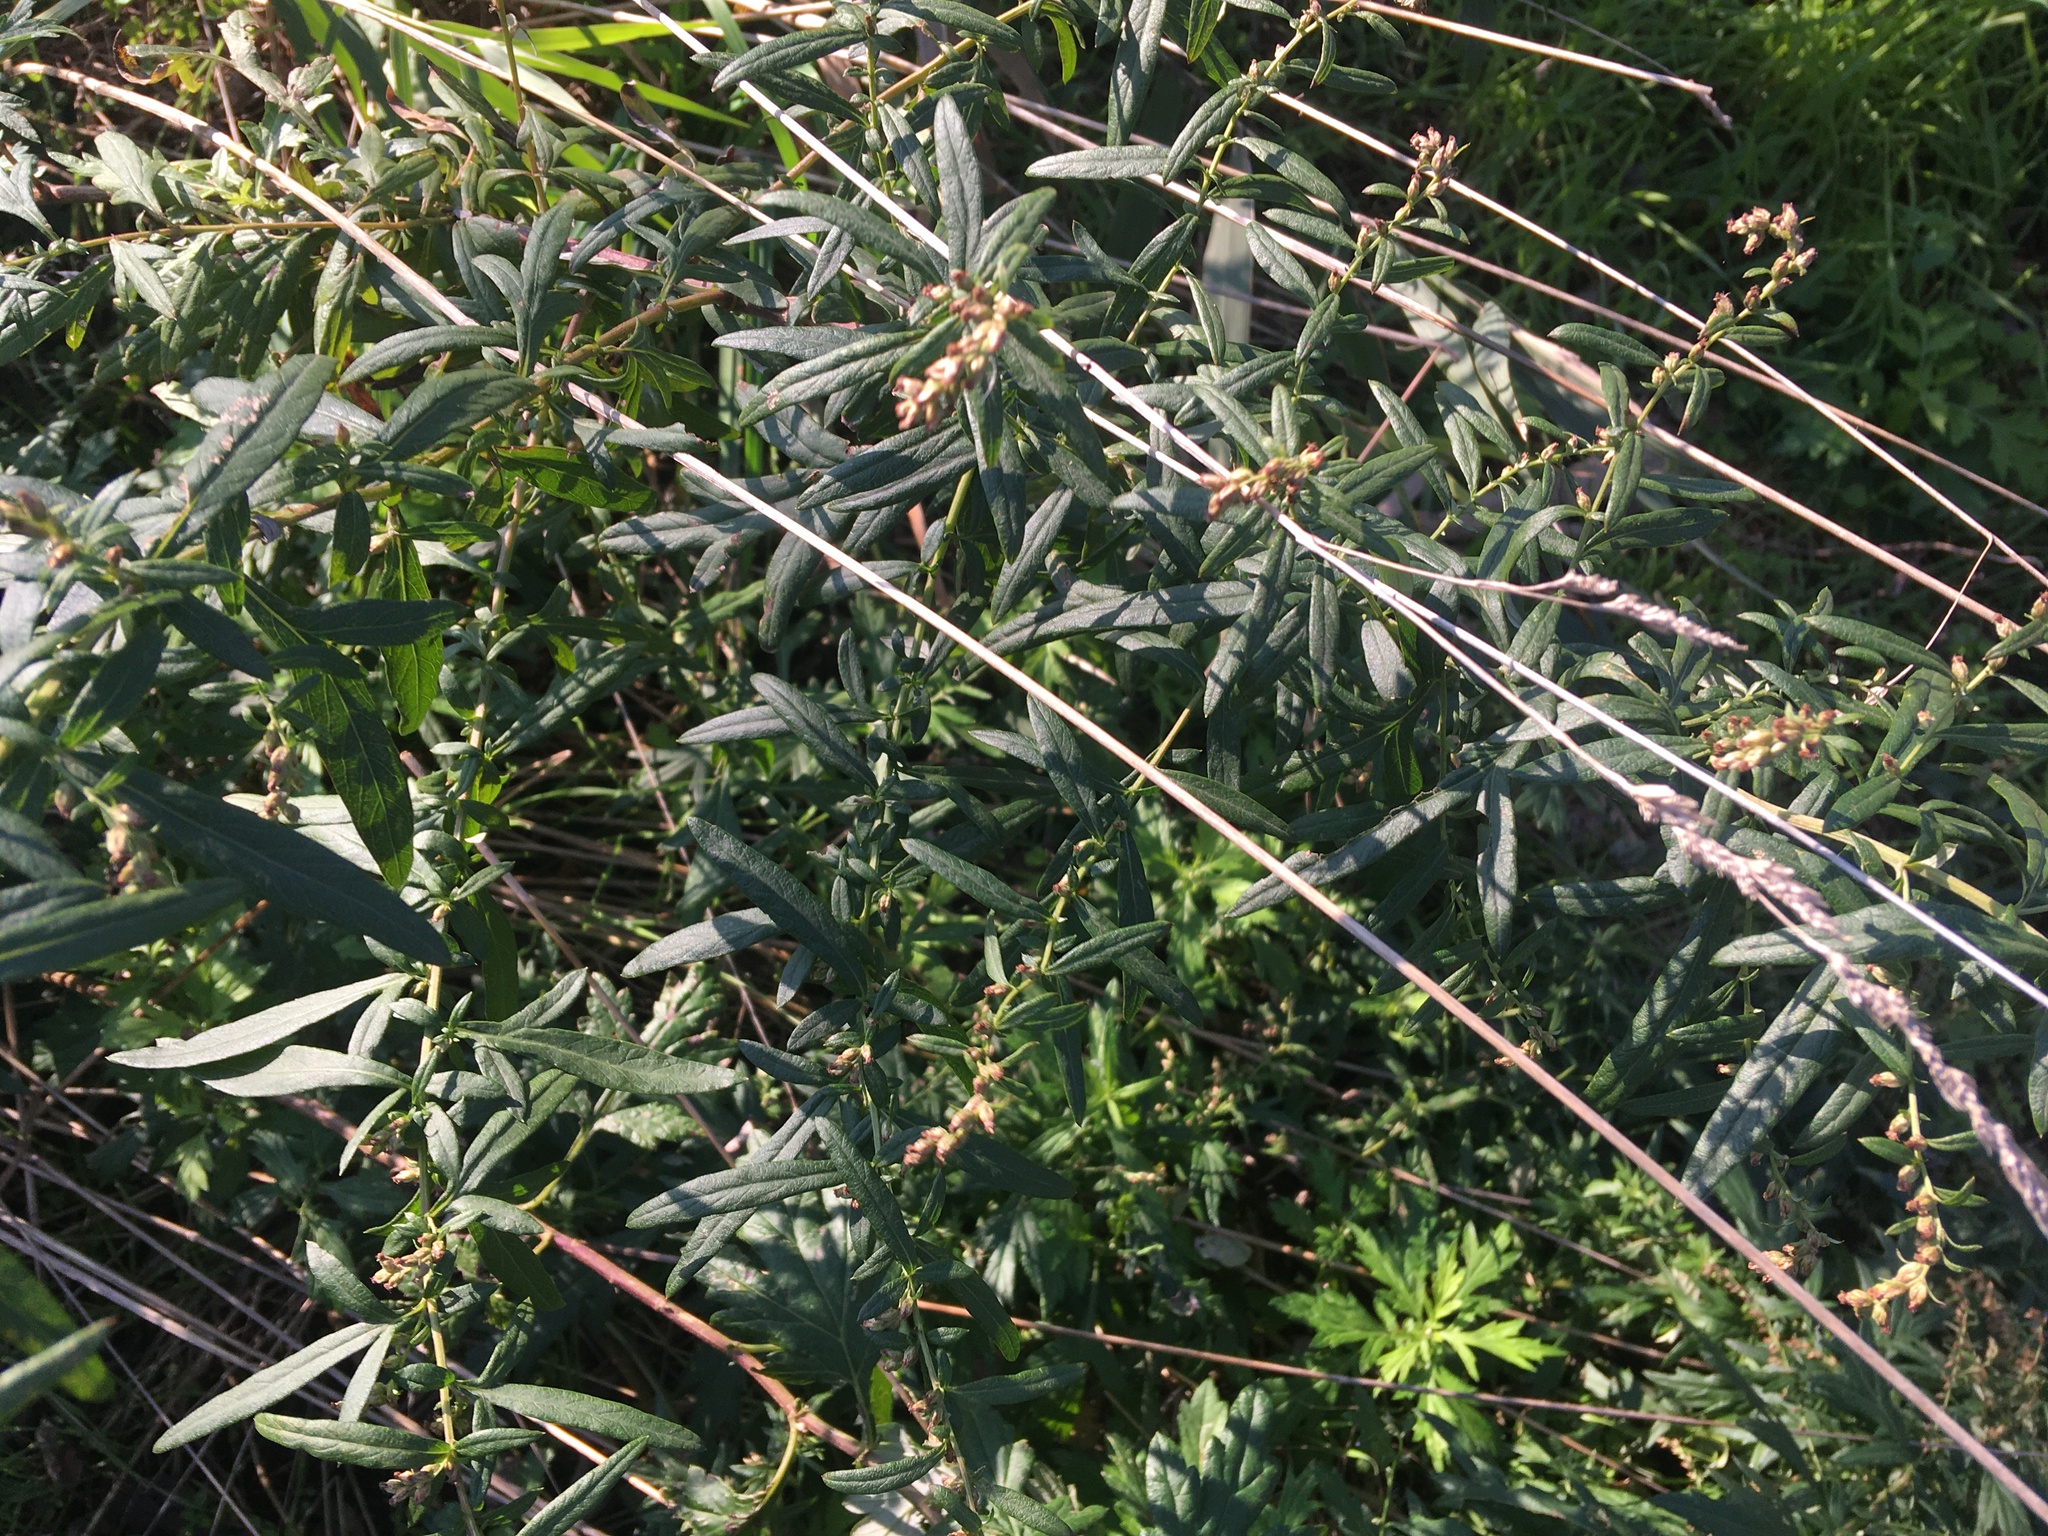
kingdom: Plantae
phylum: Tracheophyta
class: Magnoliopsida
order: Asterales
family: Asteraceae
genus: Artemisia
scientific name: Artemisia vulgaris
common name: Mugwort
